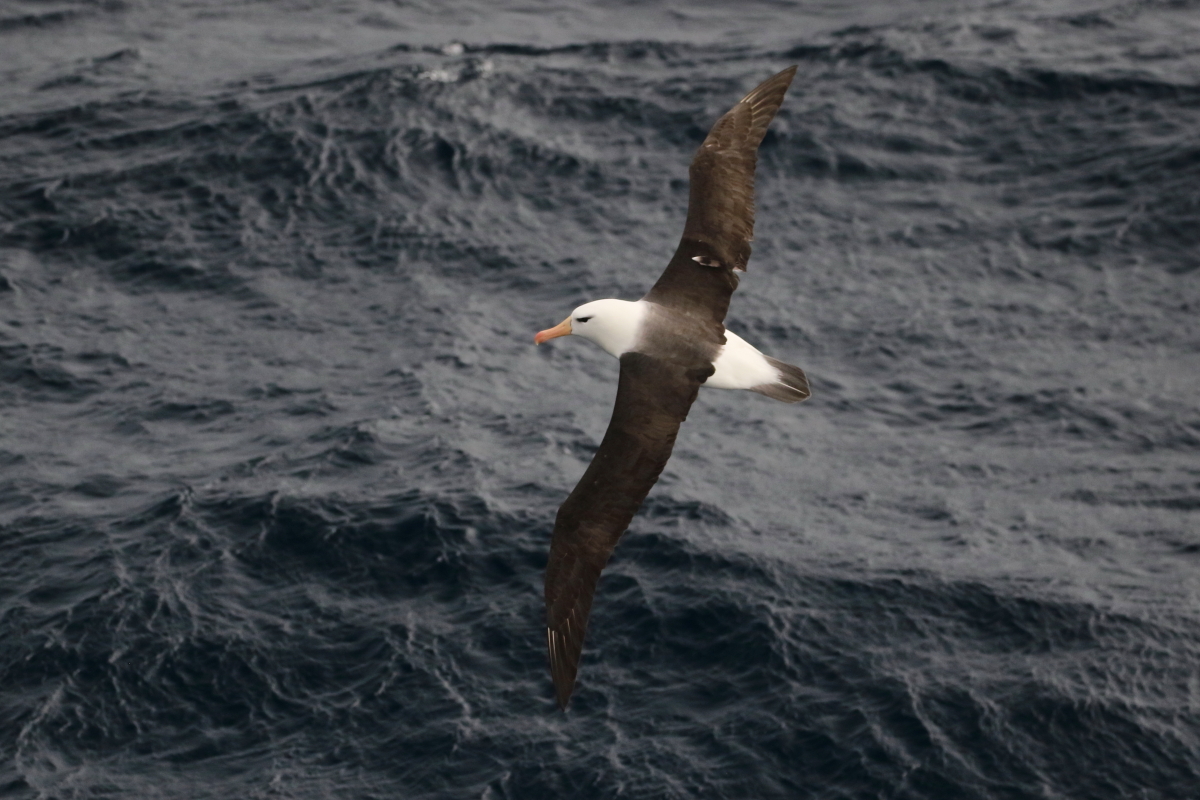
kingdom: Animalia
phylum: Chordata
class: Aves
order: Procellariiformes
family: Diomedeidae
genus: Thalassarche
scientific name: Thalassarche melanophris
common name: Black-browed albatross
